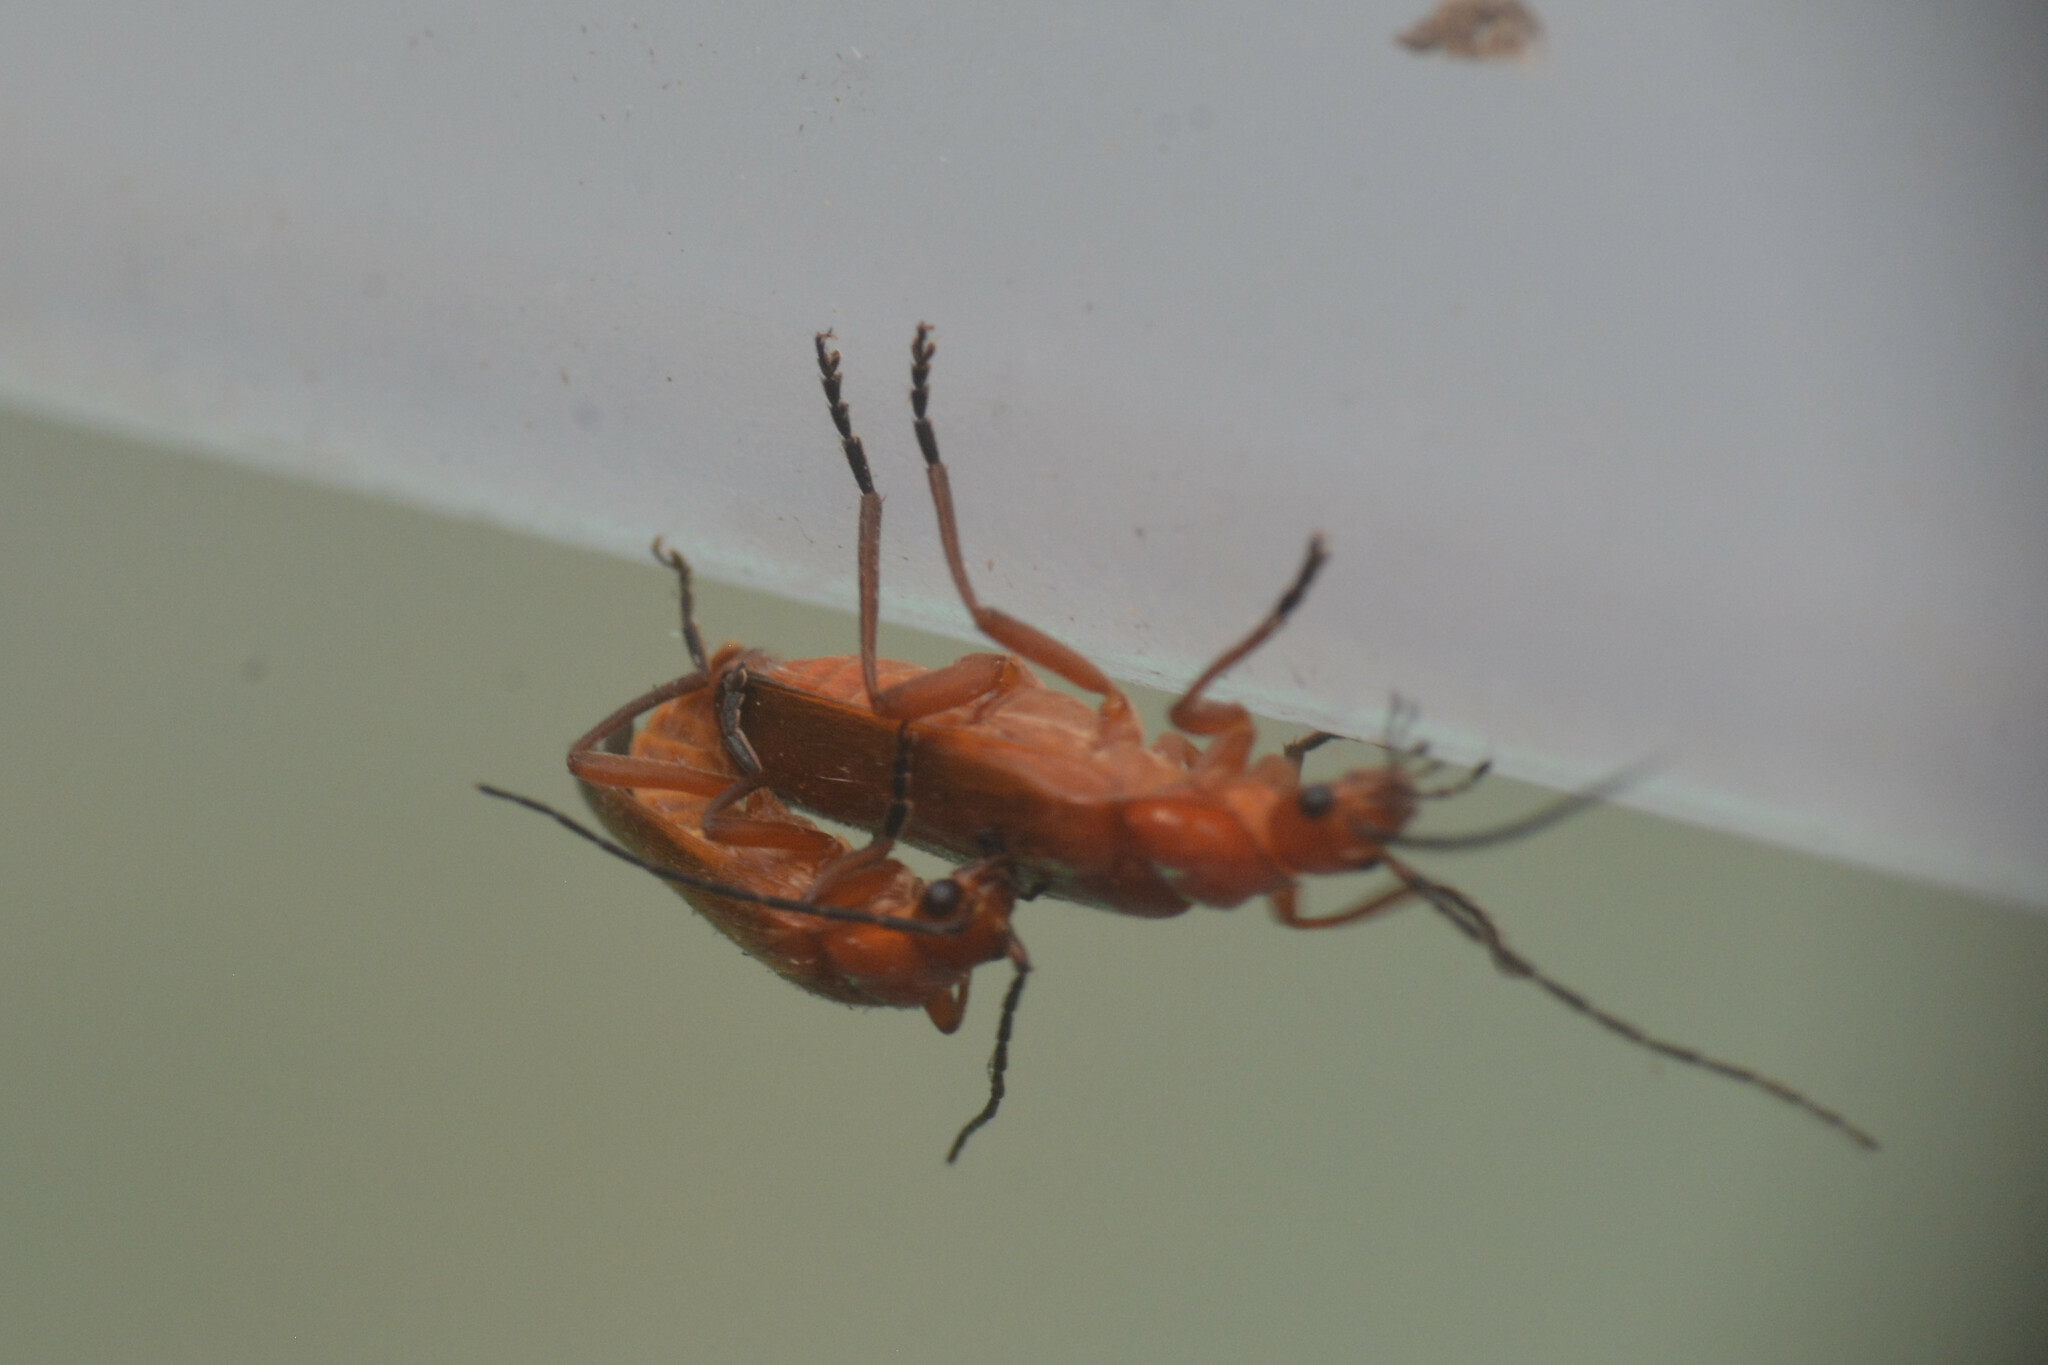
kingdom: Animalia
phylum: Arthropoda
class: Insecta
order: Coleoptera
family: Cantharidae
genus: Rhagonycha
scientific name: Rhagonycha fulva
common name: Common red soldier beetle
